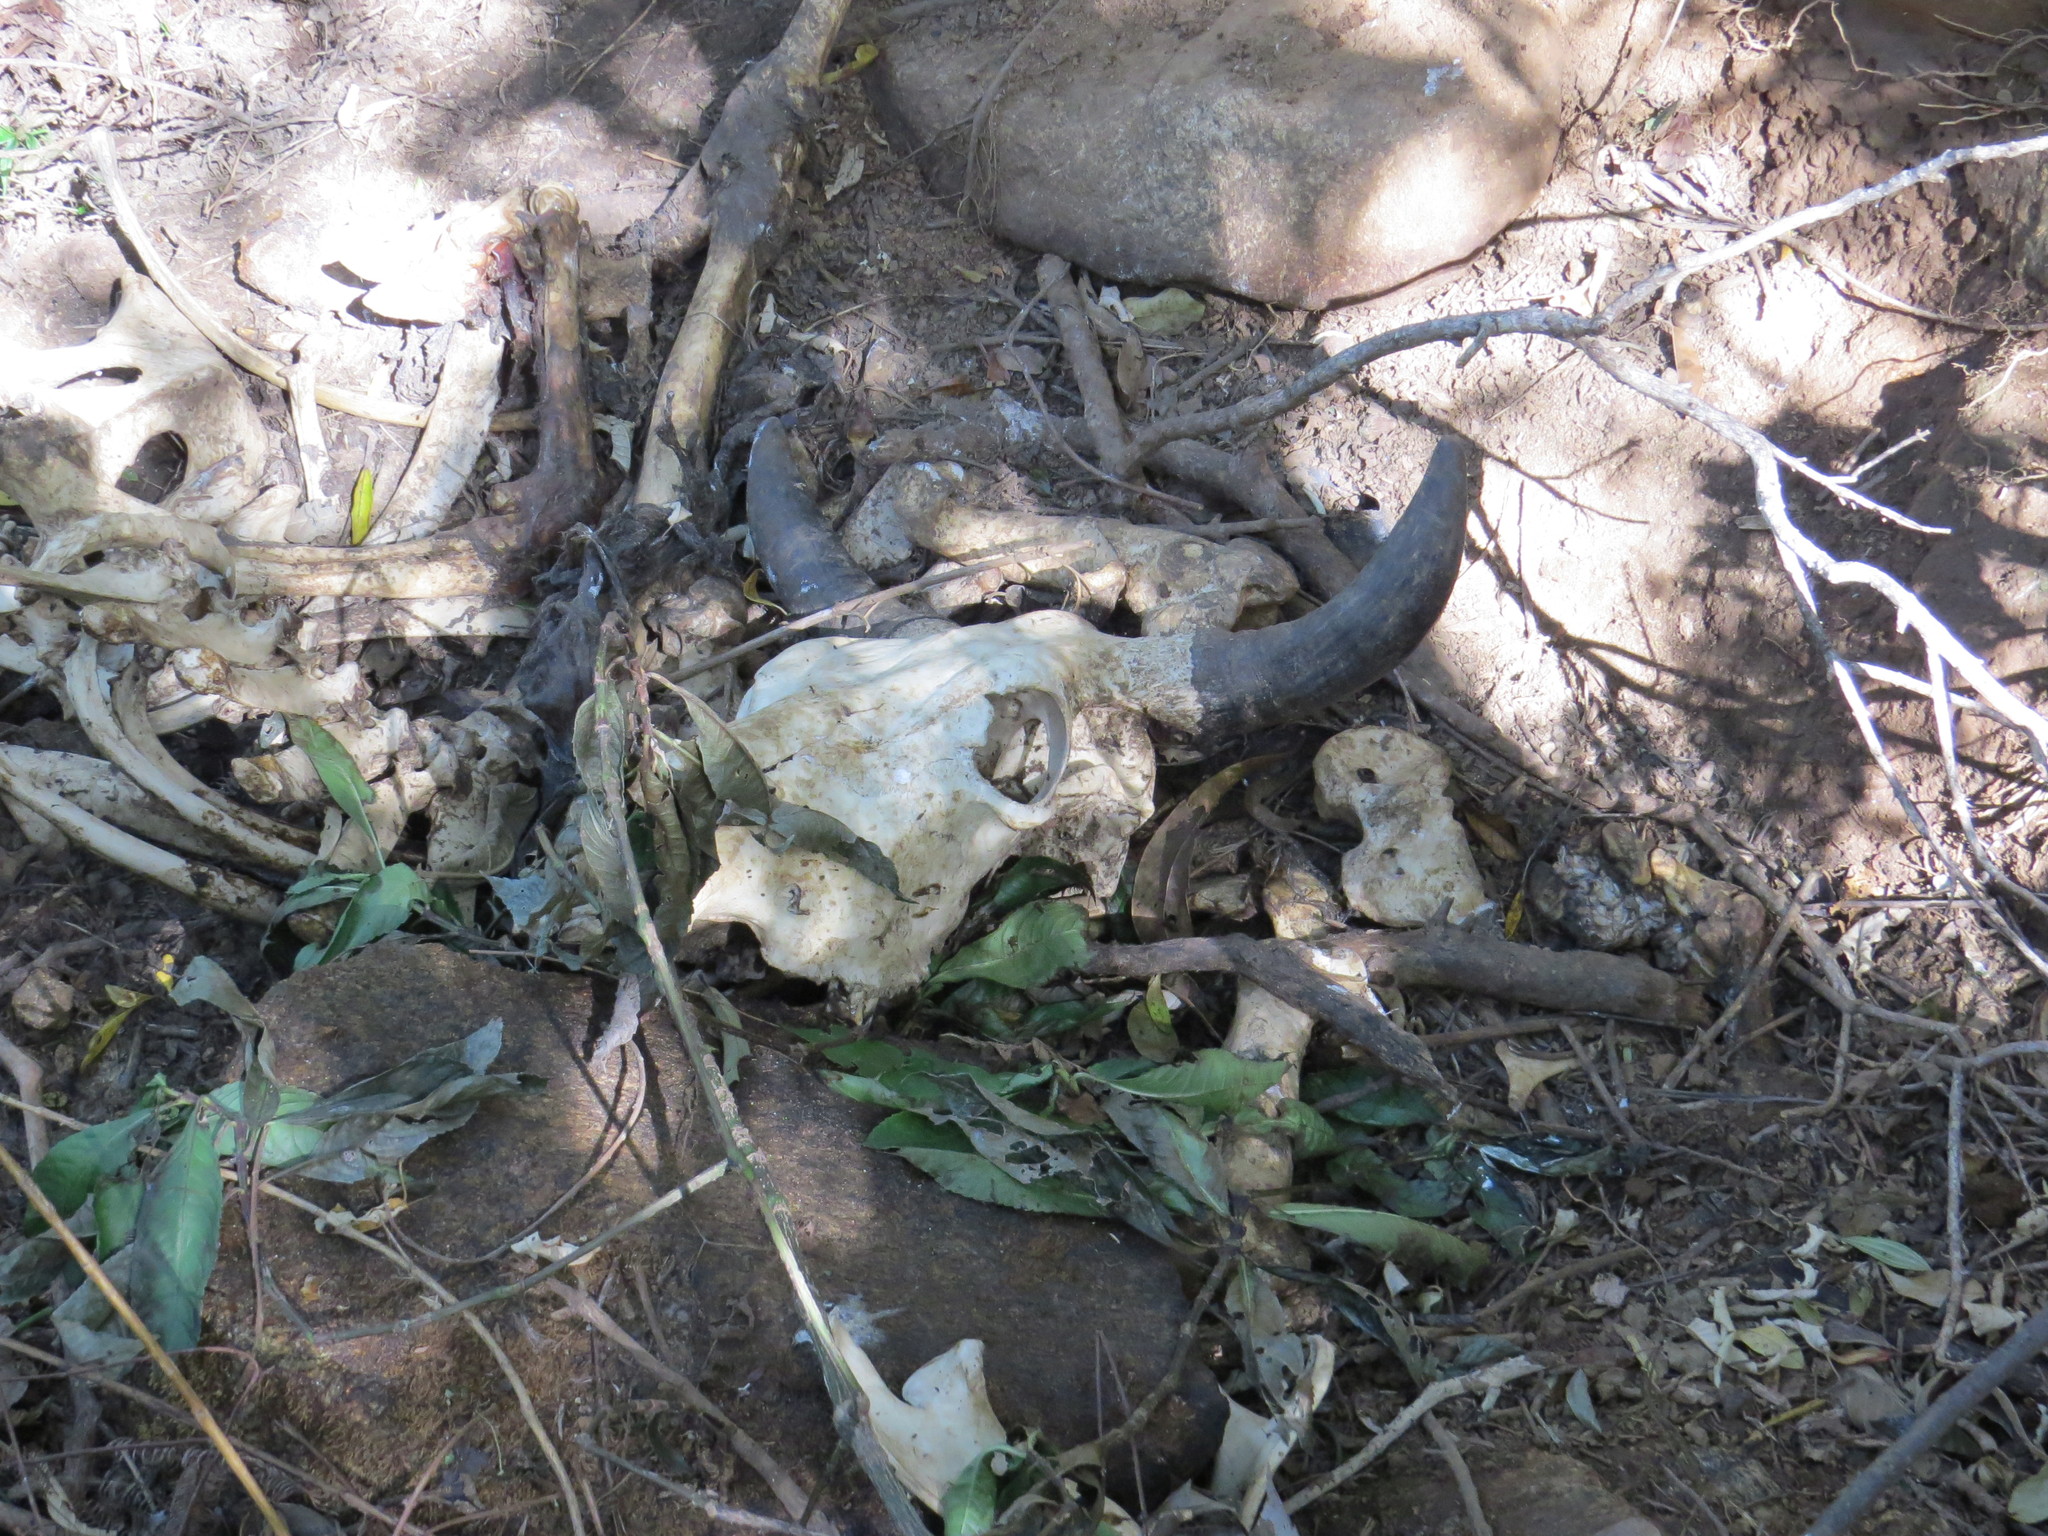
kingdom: Animalia
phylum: Chordata
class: Mammalia
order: Artiodactyla
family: Bovidae
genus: Bos
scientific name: Bos taurus
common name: Domesticated cattle
